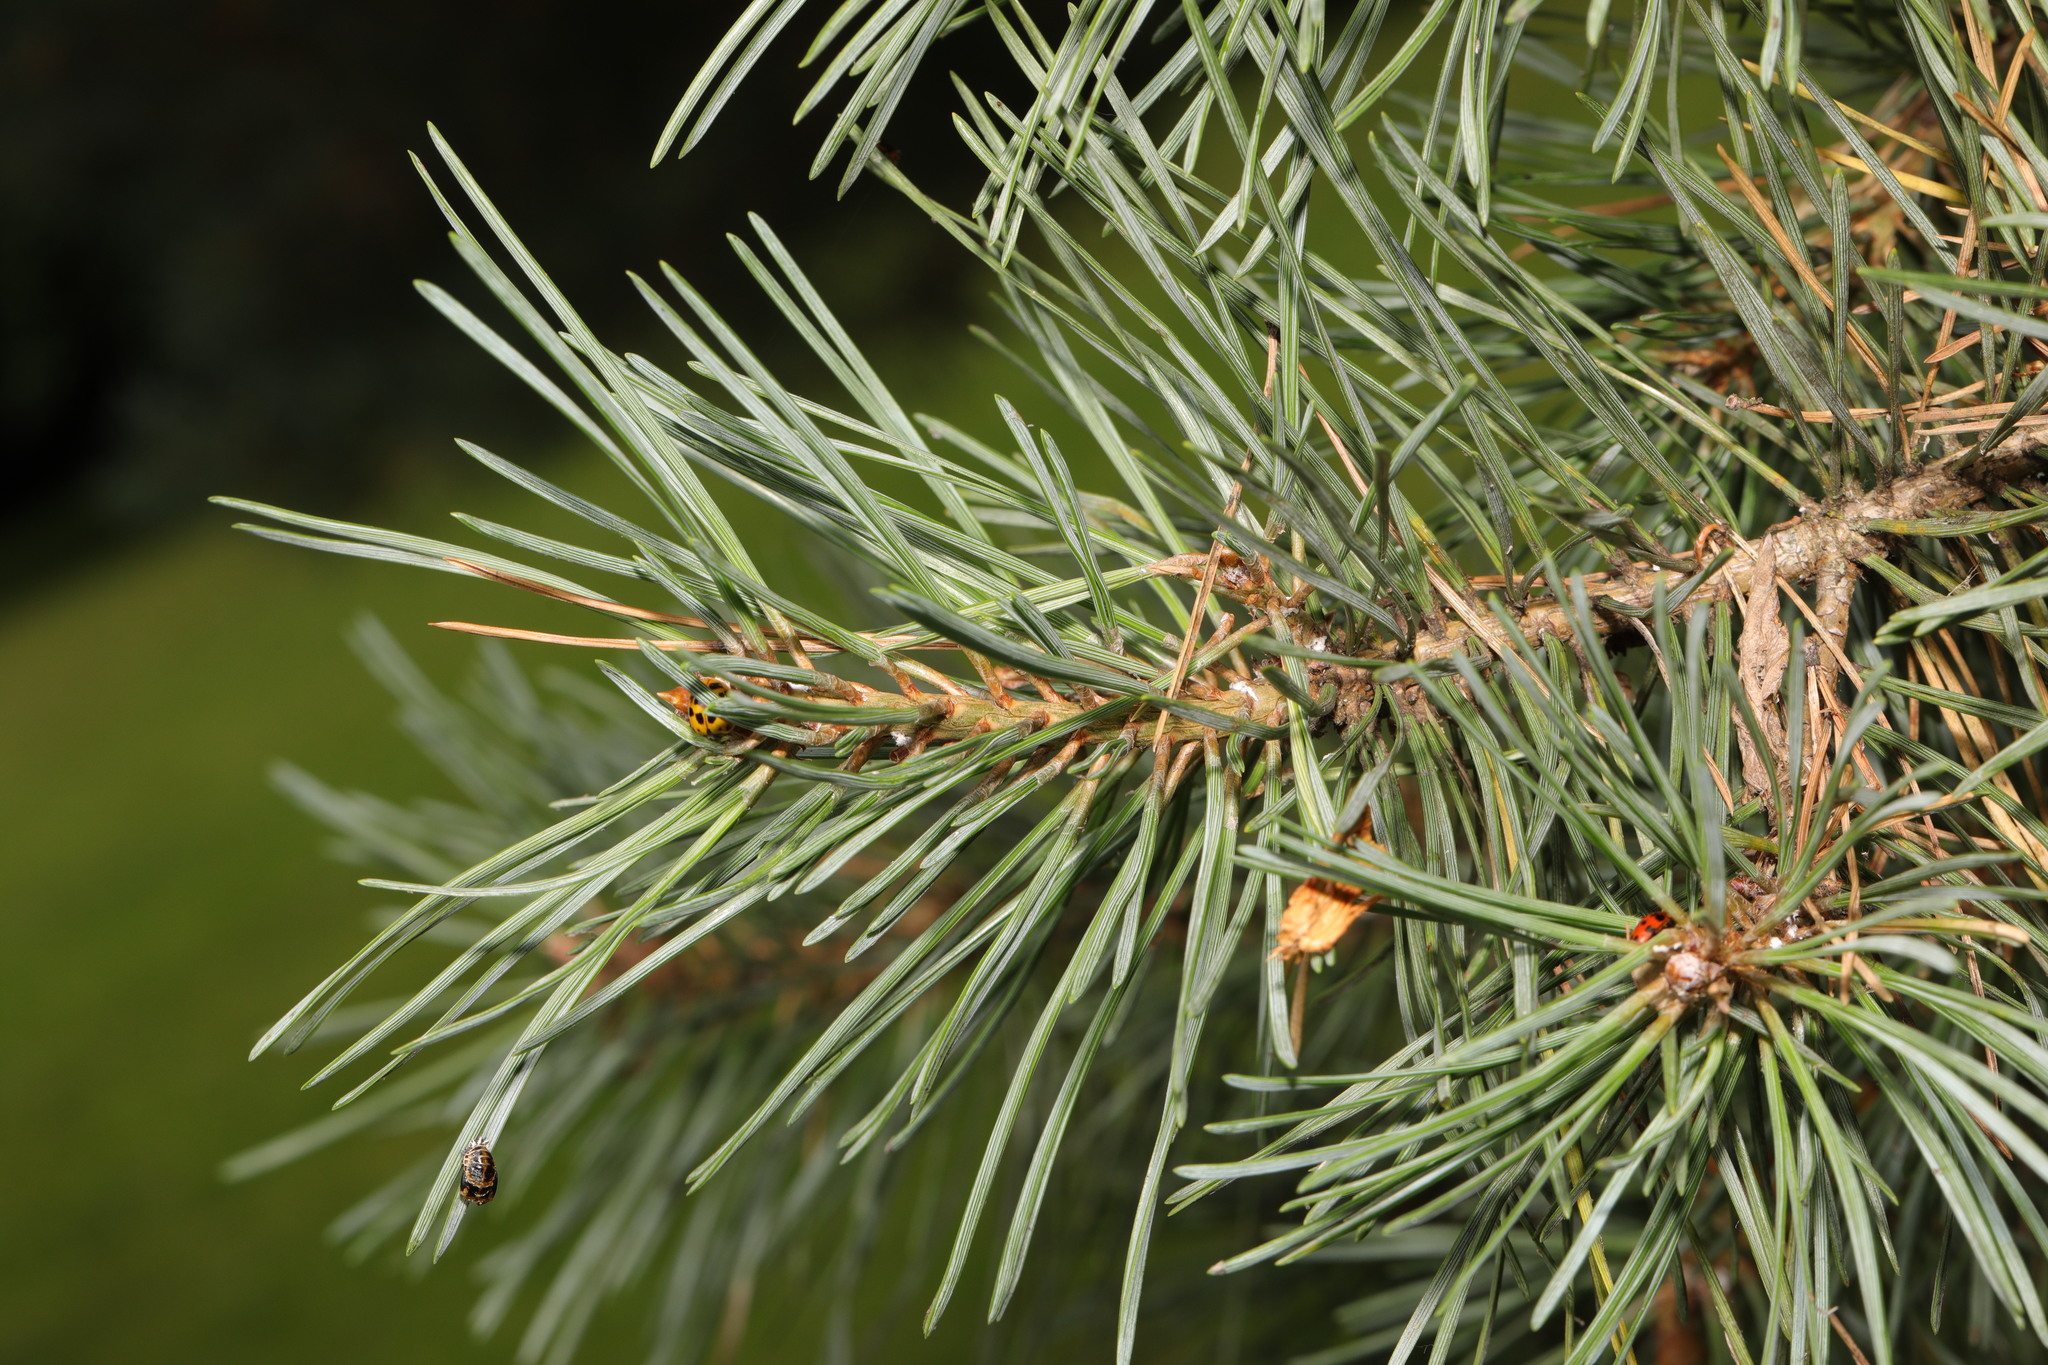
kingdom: Plantae
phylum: Tracheophyta
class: Pinopsida
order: Pinales
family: Pinaceae
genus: Pinus
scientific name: Pinus sylvestris
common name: Scots pine
